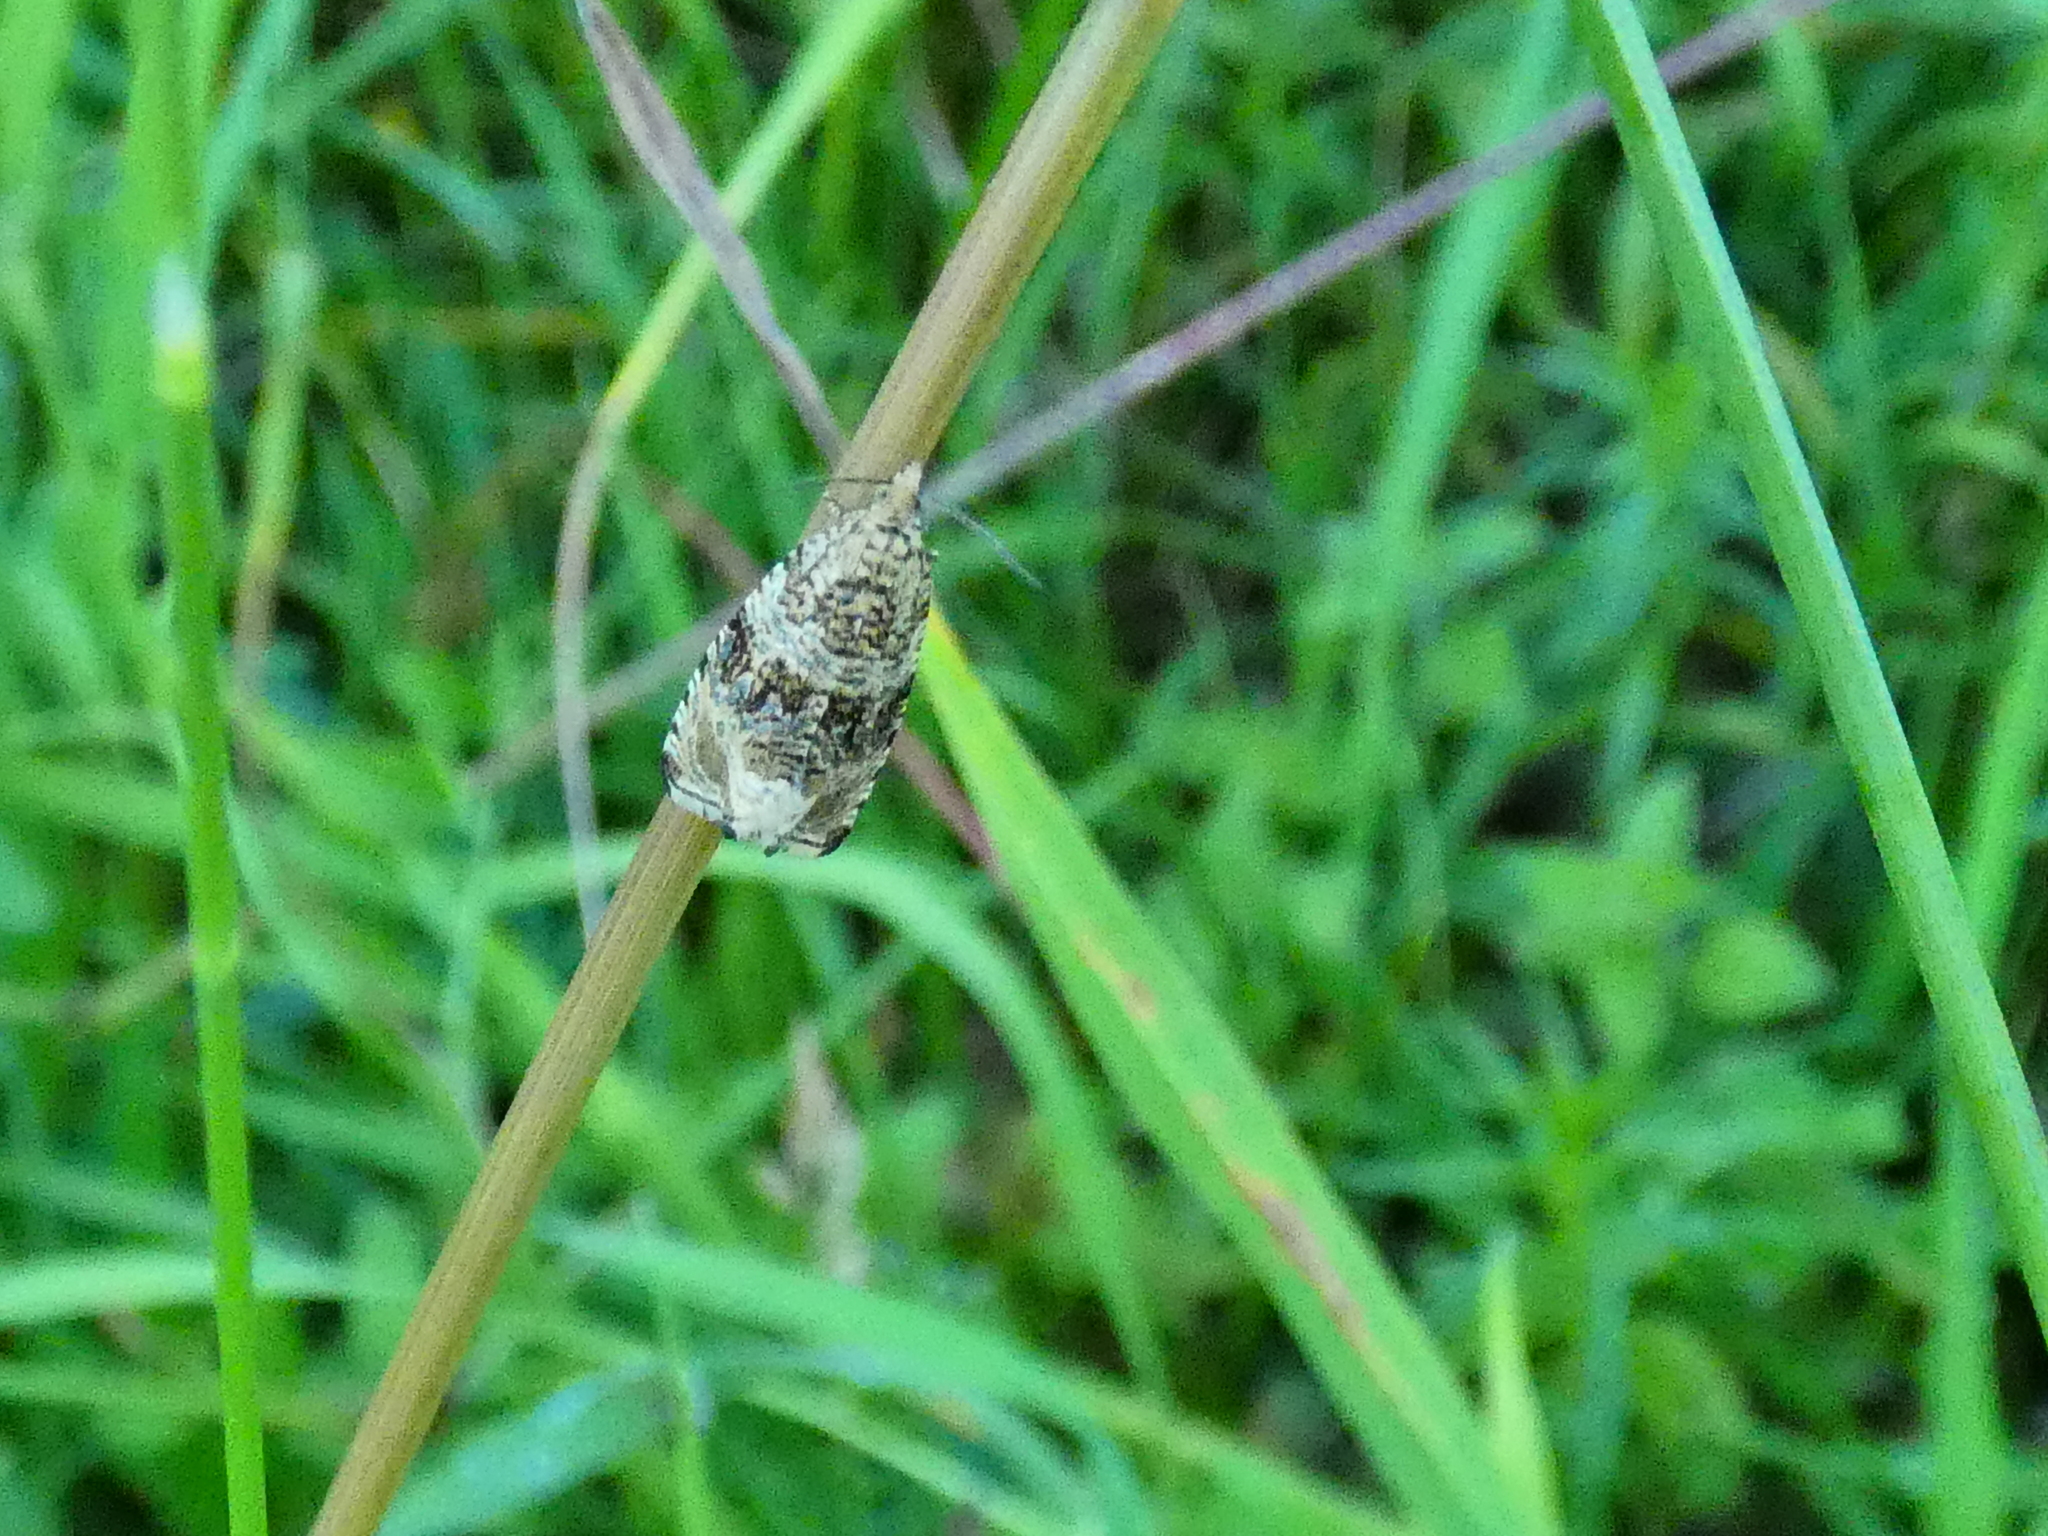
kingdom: Animalia
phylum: Arthropoda
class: Insecta
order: Lepidoptera
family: Tortricidae
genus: Syricoris
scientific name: Syricoris lacunana
